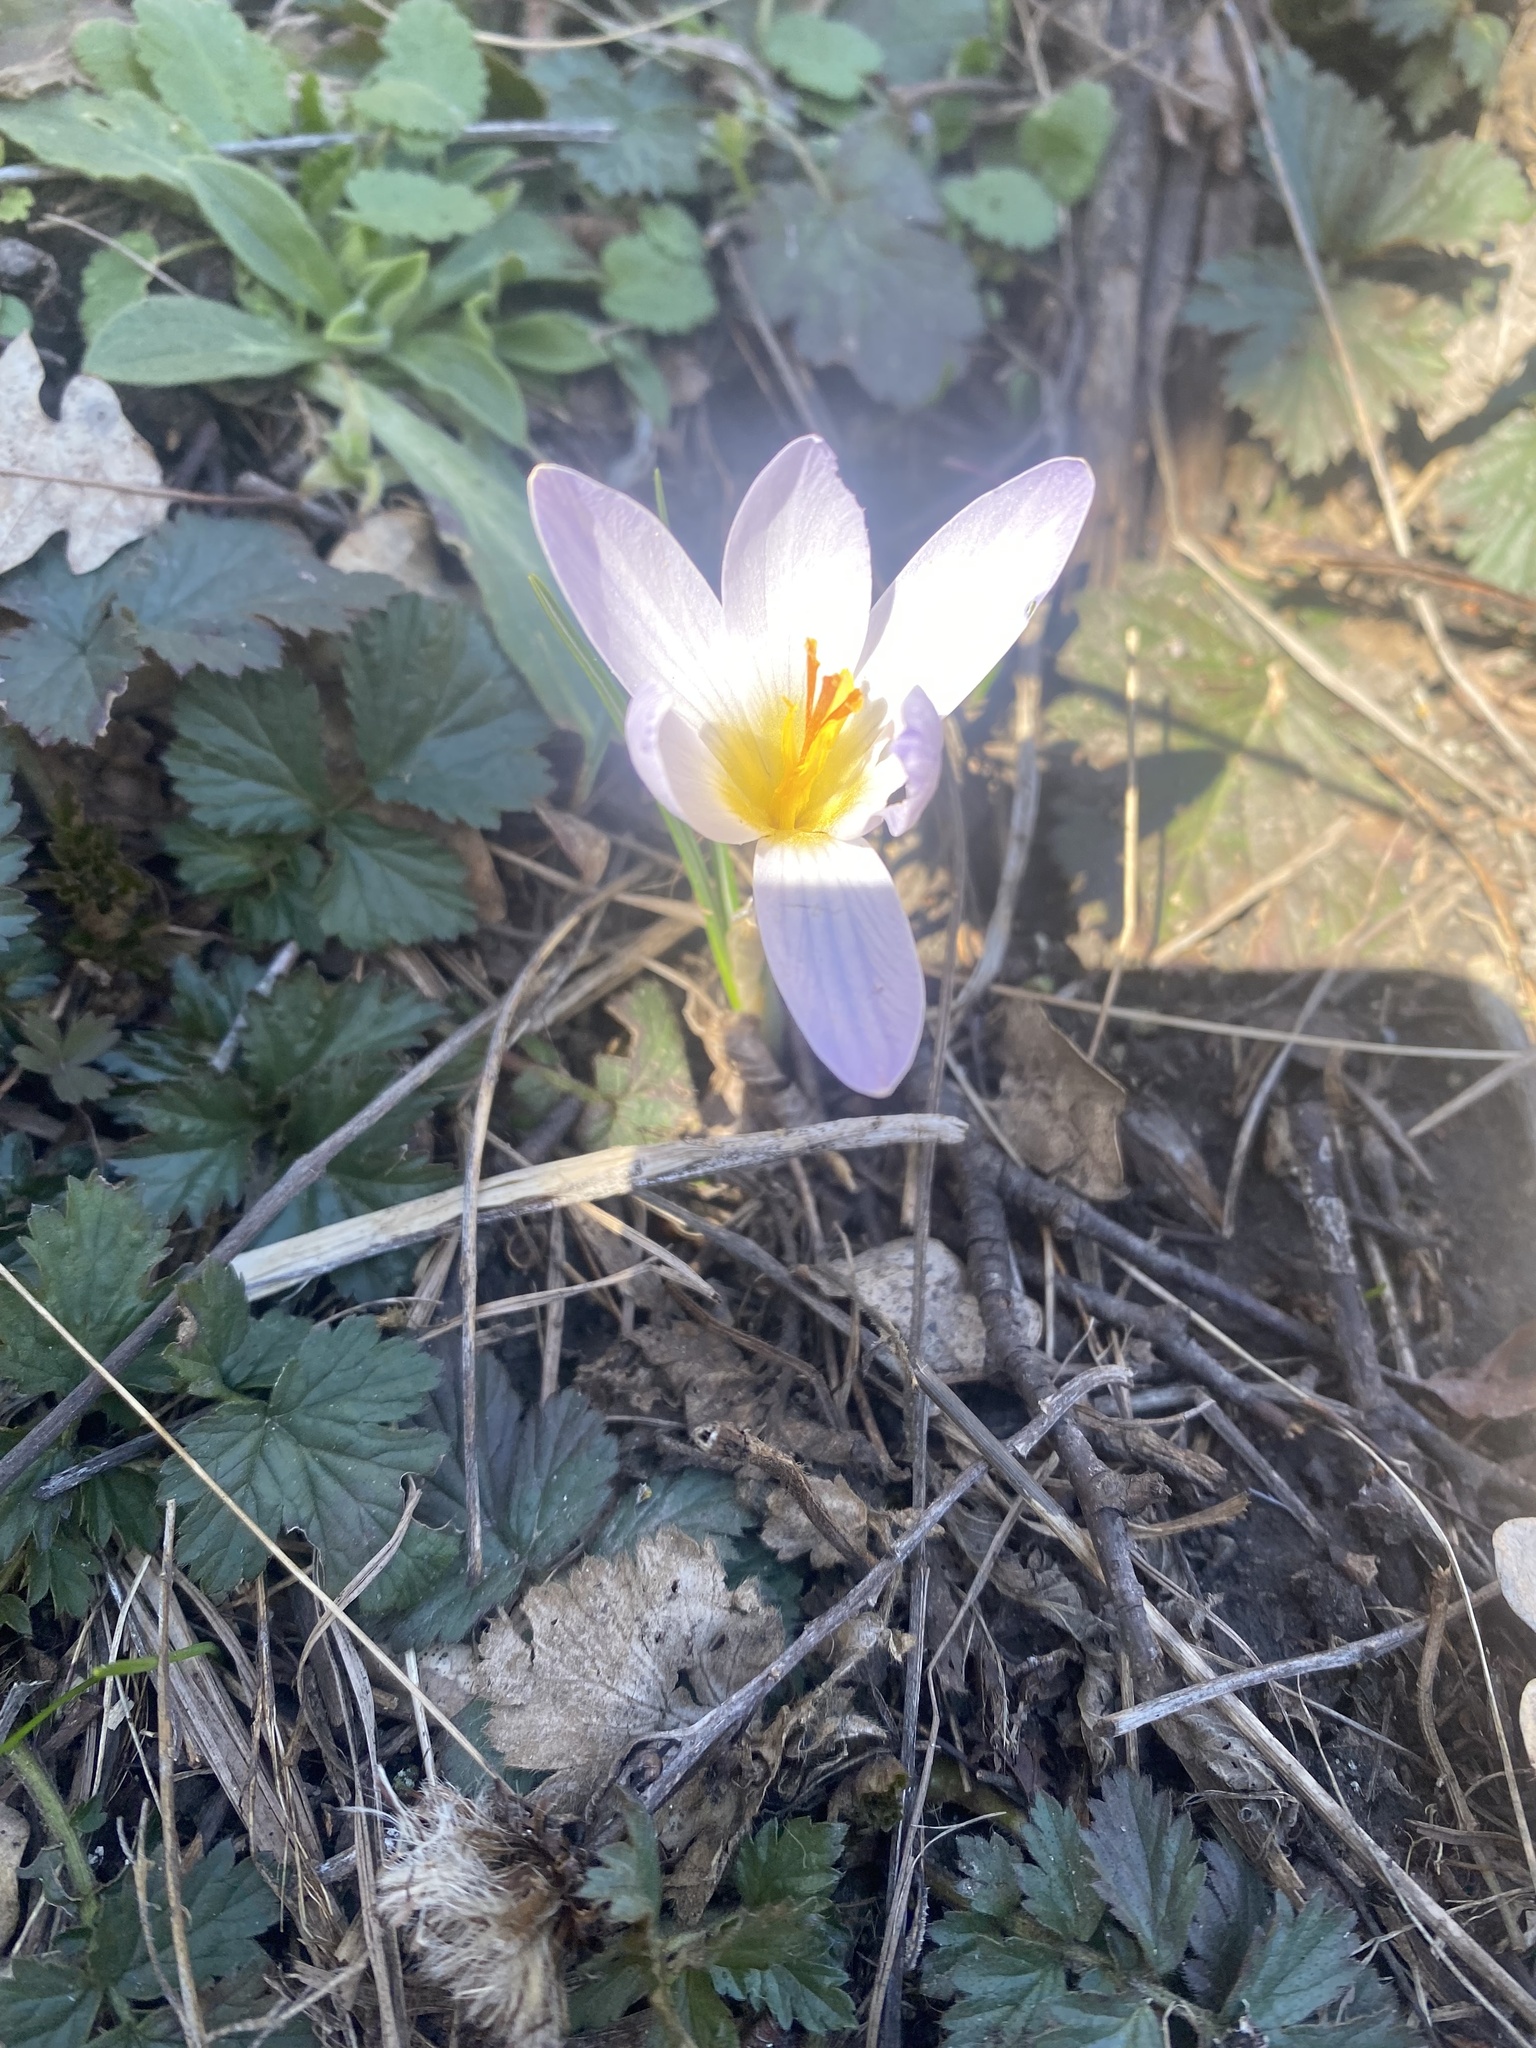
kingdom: Plantae
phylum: Tracheophyta
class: Liliopsida
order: Asparagales
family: Iridaceae
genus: Crocus
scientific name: Crocus reticulatus
